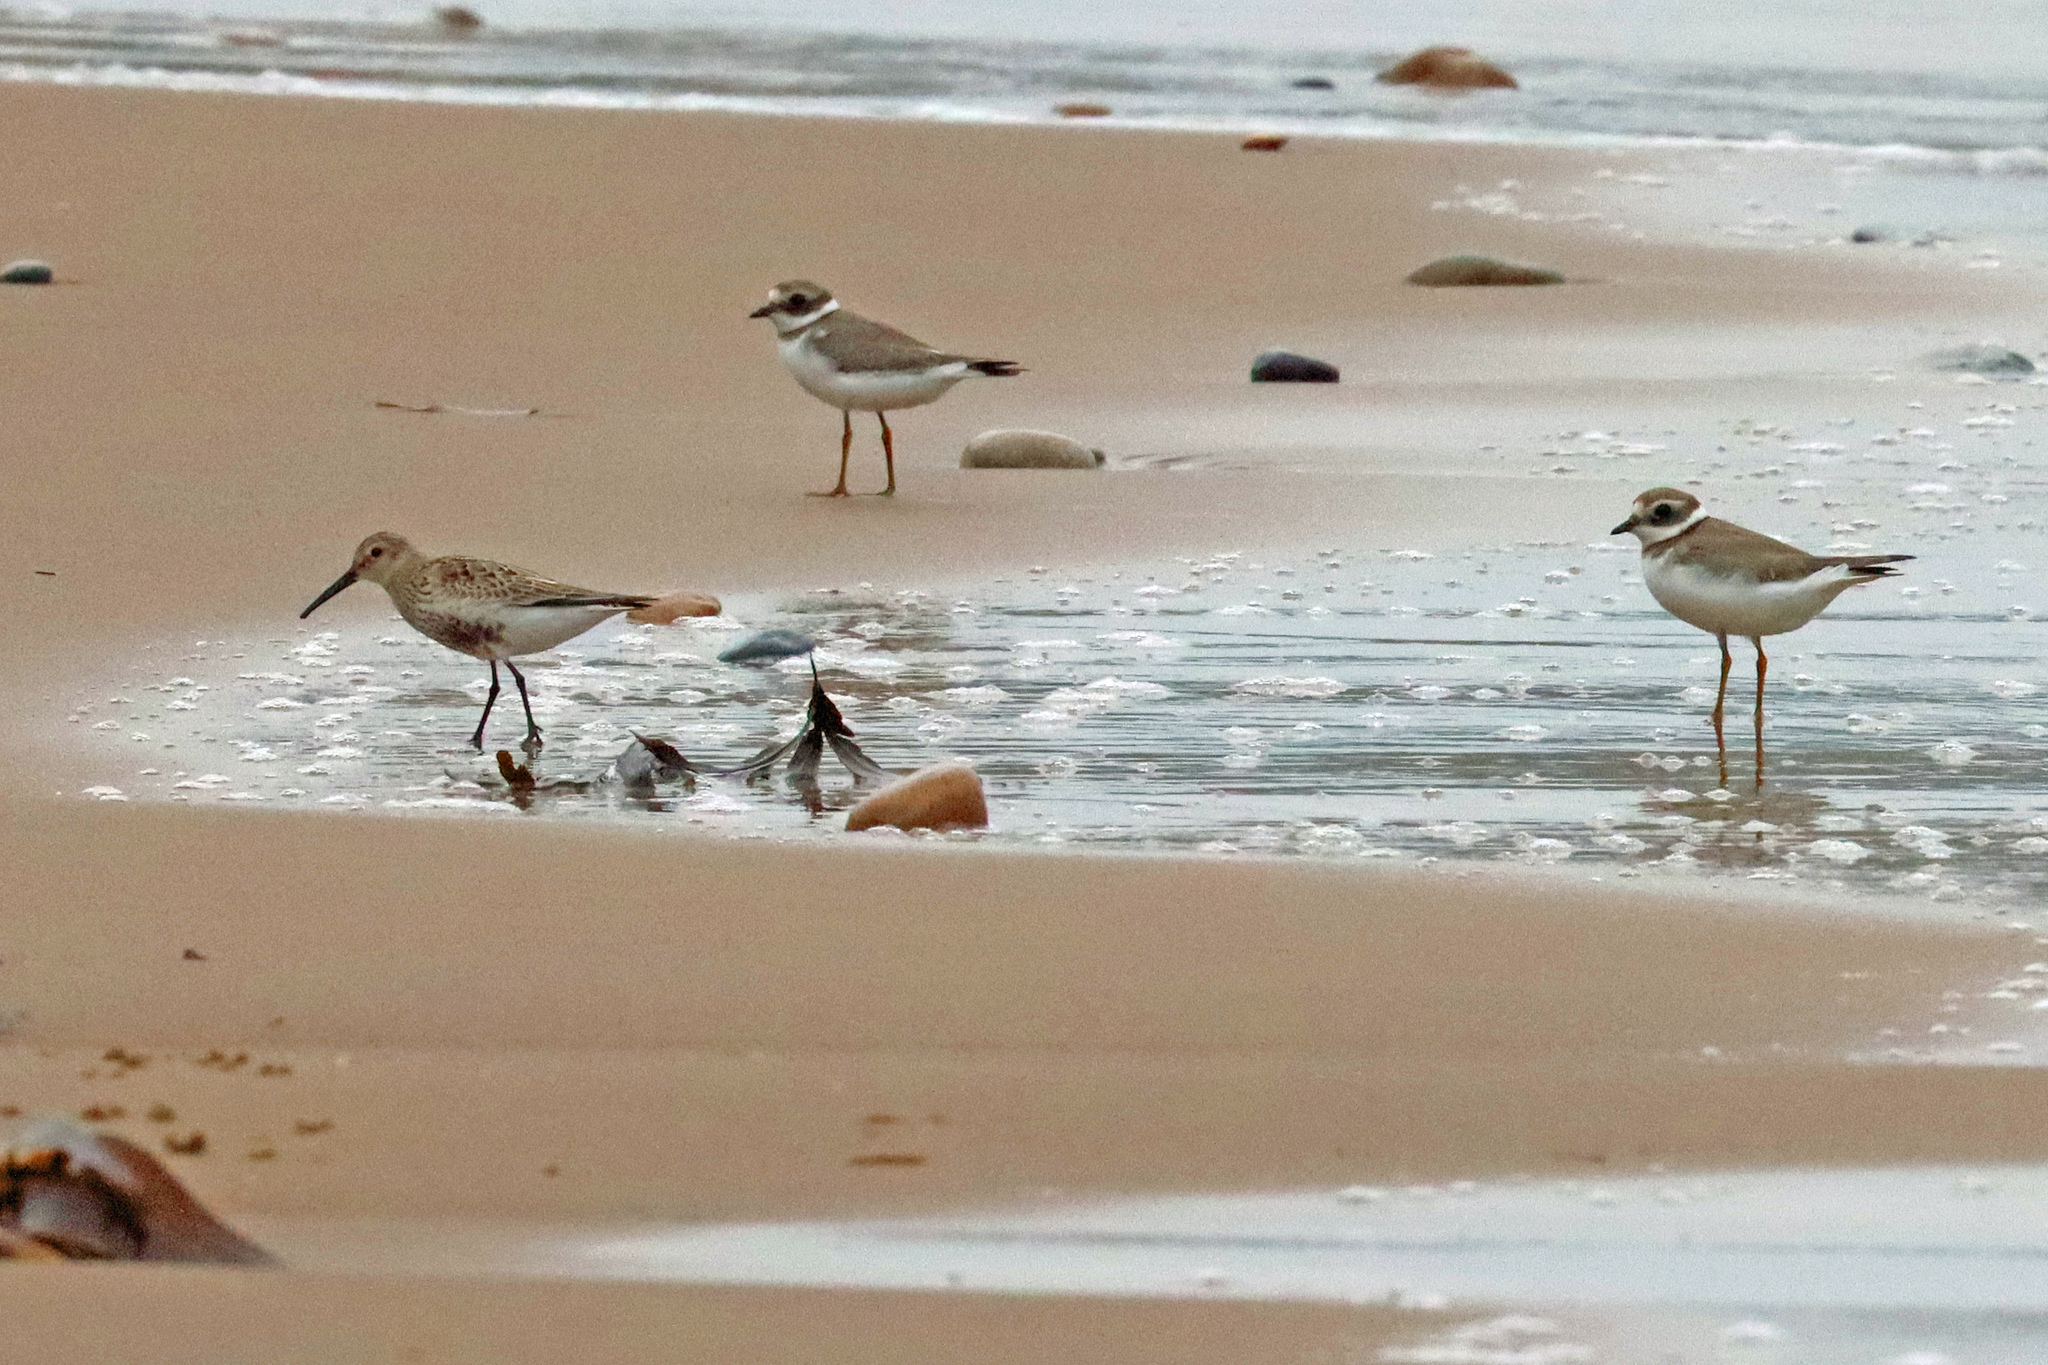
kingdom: Animalia
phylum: Chordata
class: Aves
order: Charadriiformes
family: Charadriidae
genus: Charadrius
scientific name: Charadrius hiaticula
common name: Common ringed plover
